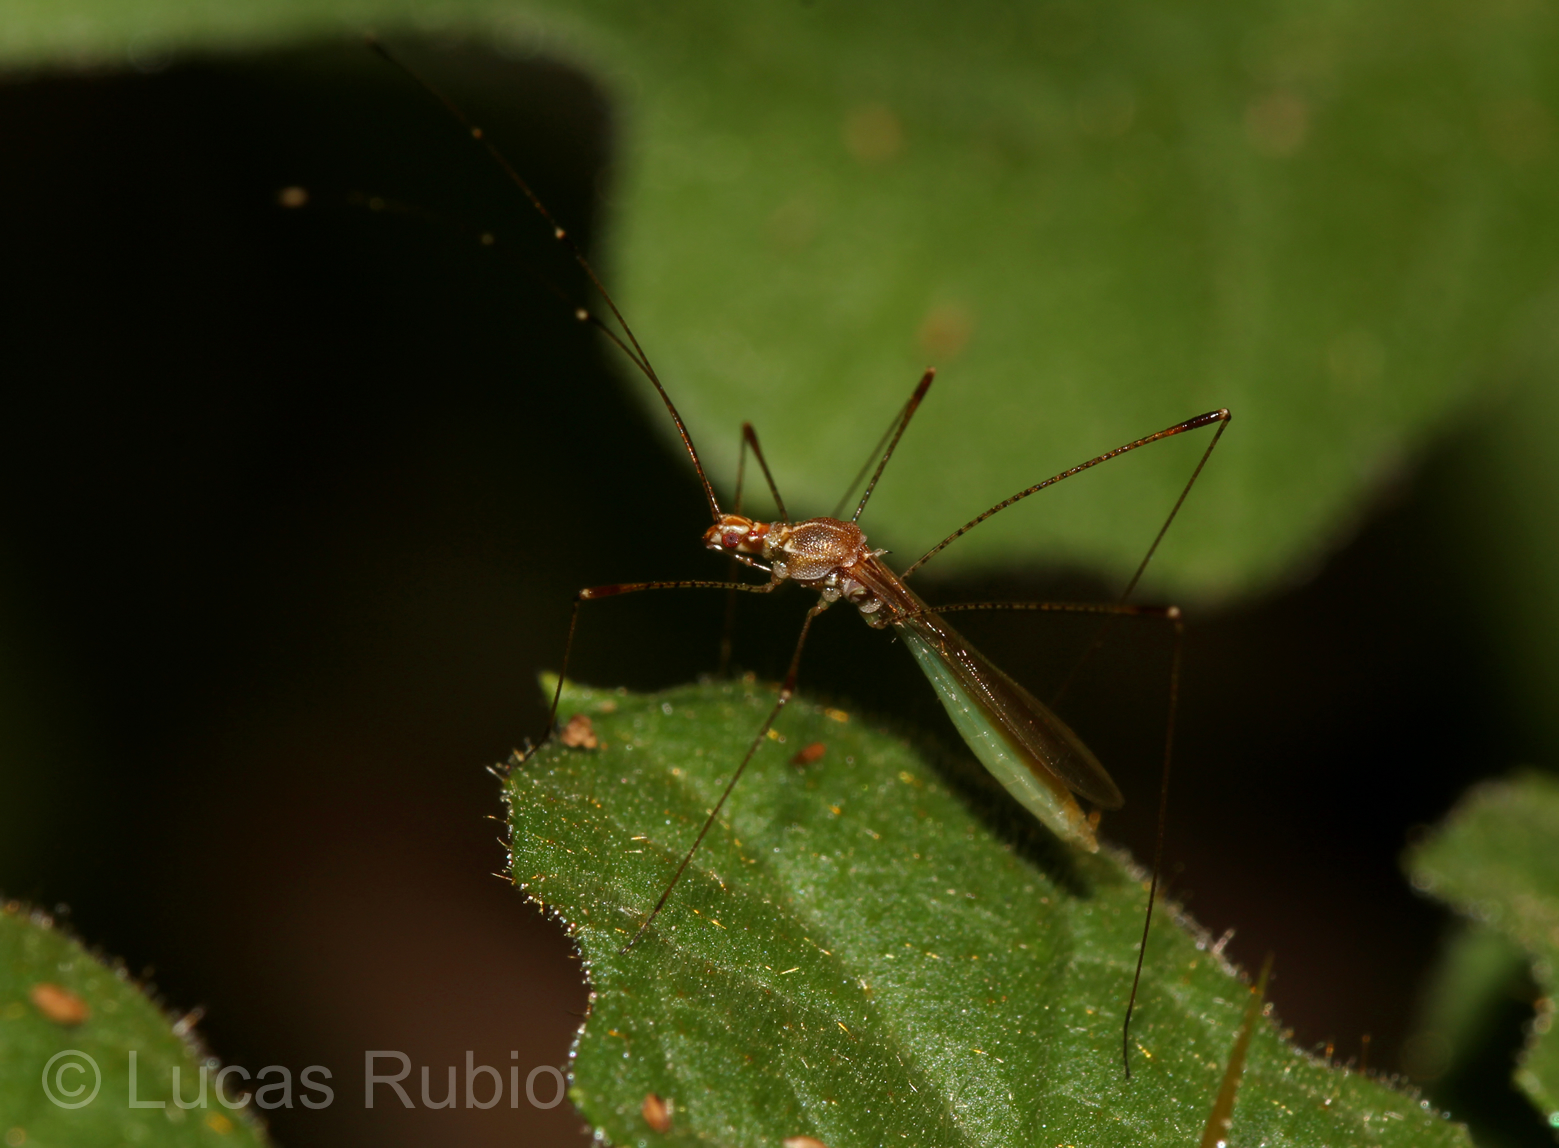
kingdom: Animalia
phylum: Arthropoda
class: Insecta
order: Hemiptera
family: Berytidae
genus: Jalysus
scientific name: Jalysus sobrinus
